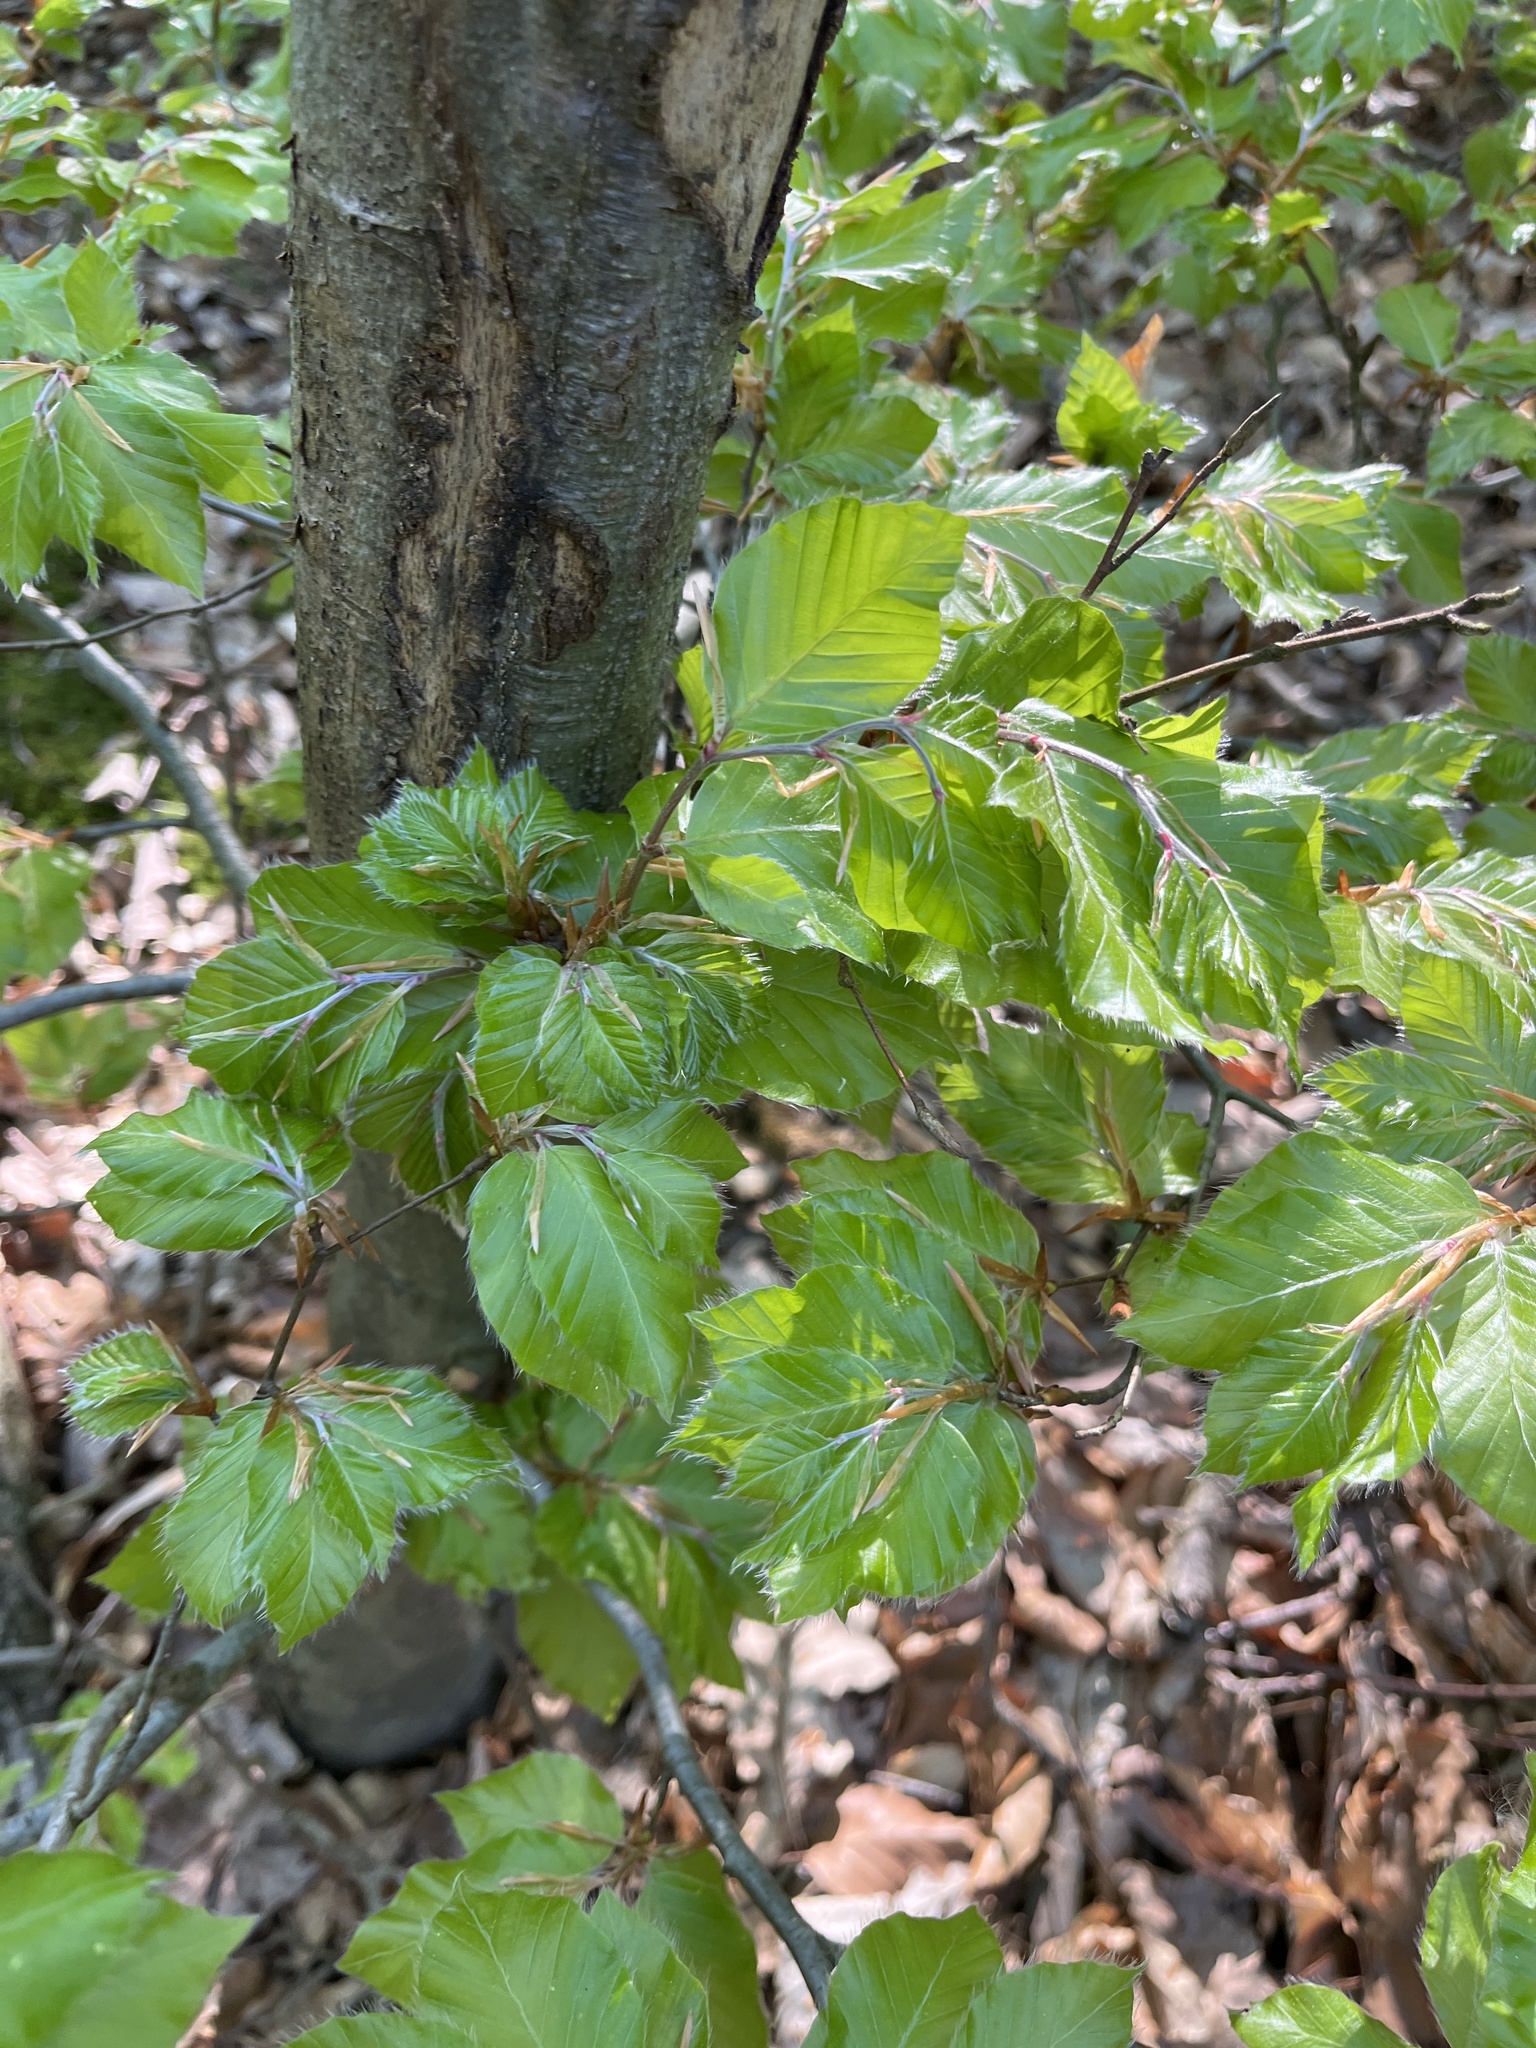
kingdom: Plantae
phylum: Tracheophyta
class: Magnoliopsida
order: Fagales
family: Fagaceae
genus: Fagus
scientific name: Fagus sylvatica
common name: Beech
